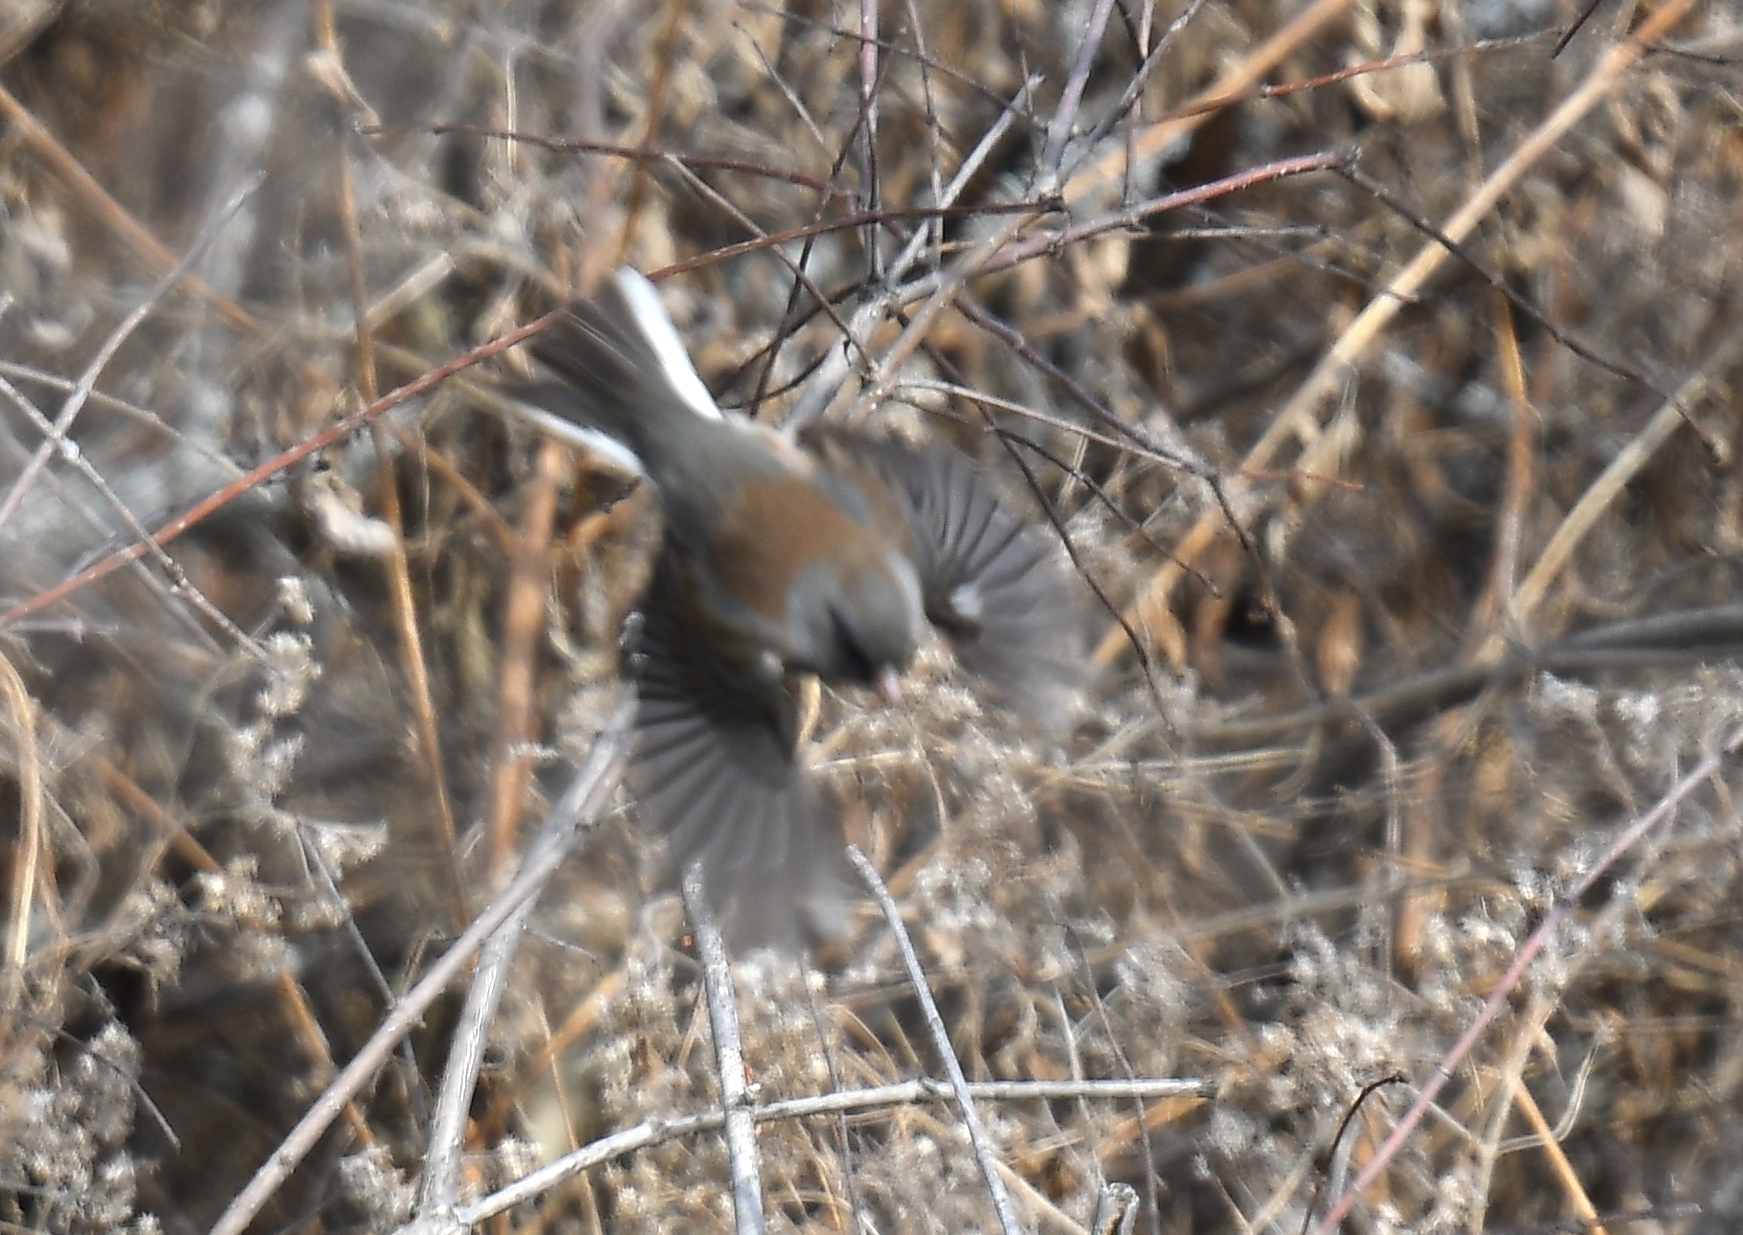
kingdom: Animalia
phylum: Chordata
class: Aves
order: Passeriformes
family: Passerellidae
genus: Junco
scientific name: Junco hyemalis
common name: Dark-eyed junco
